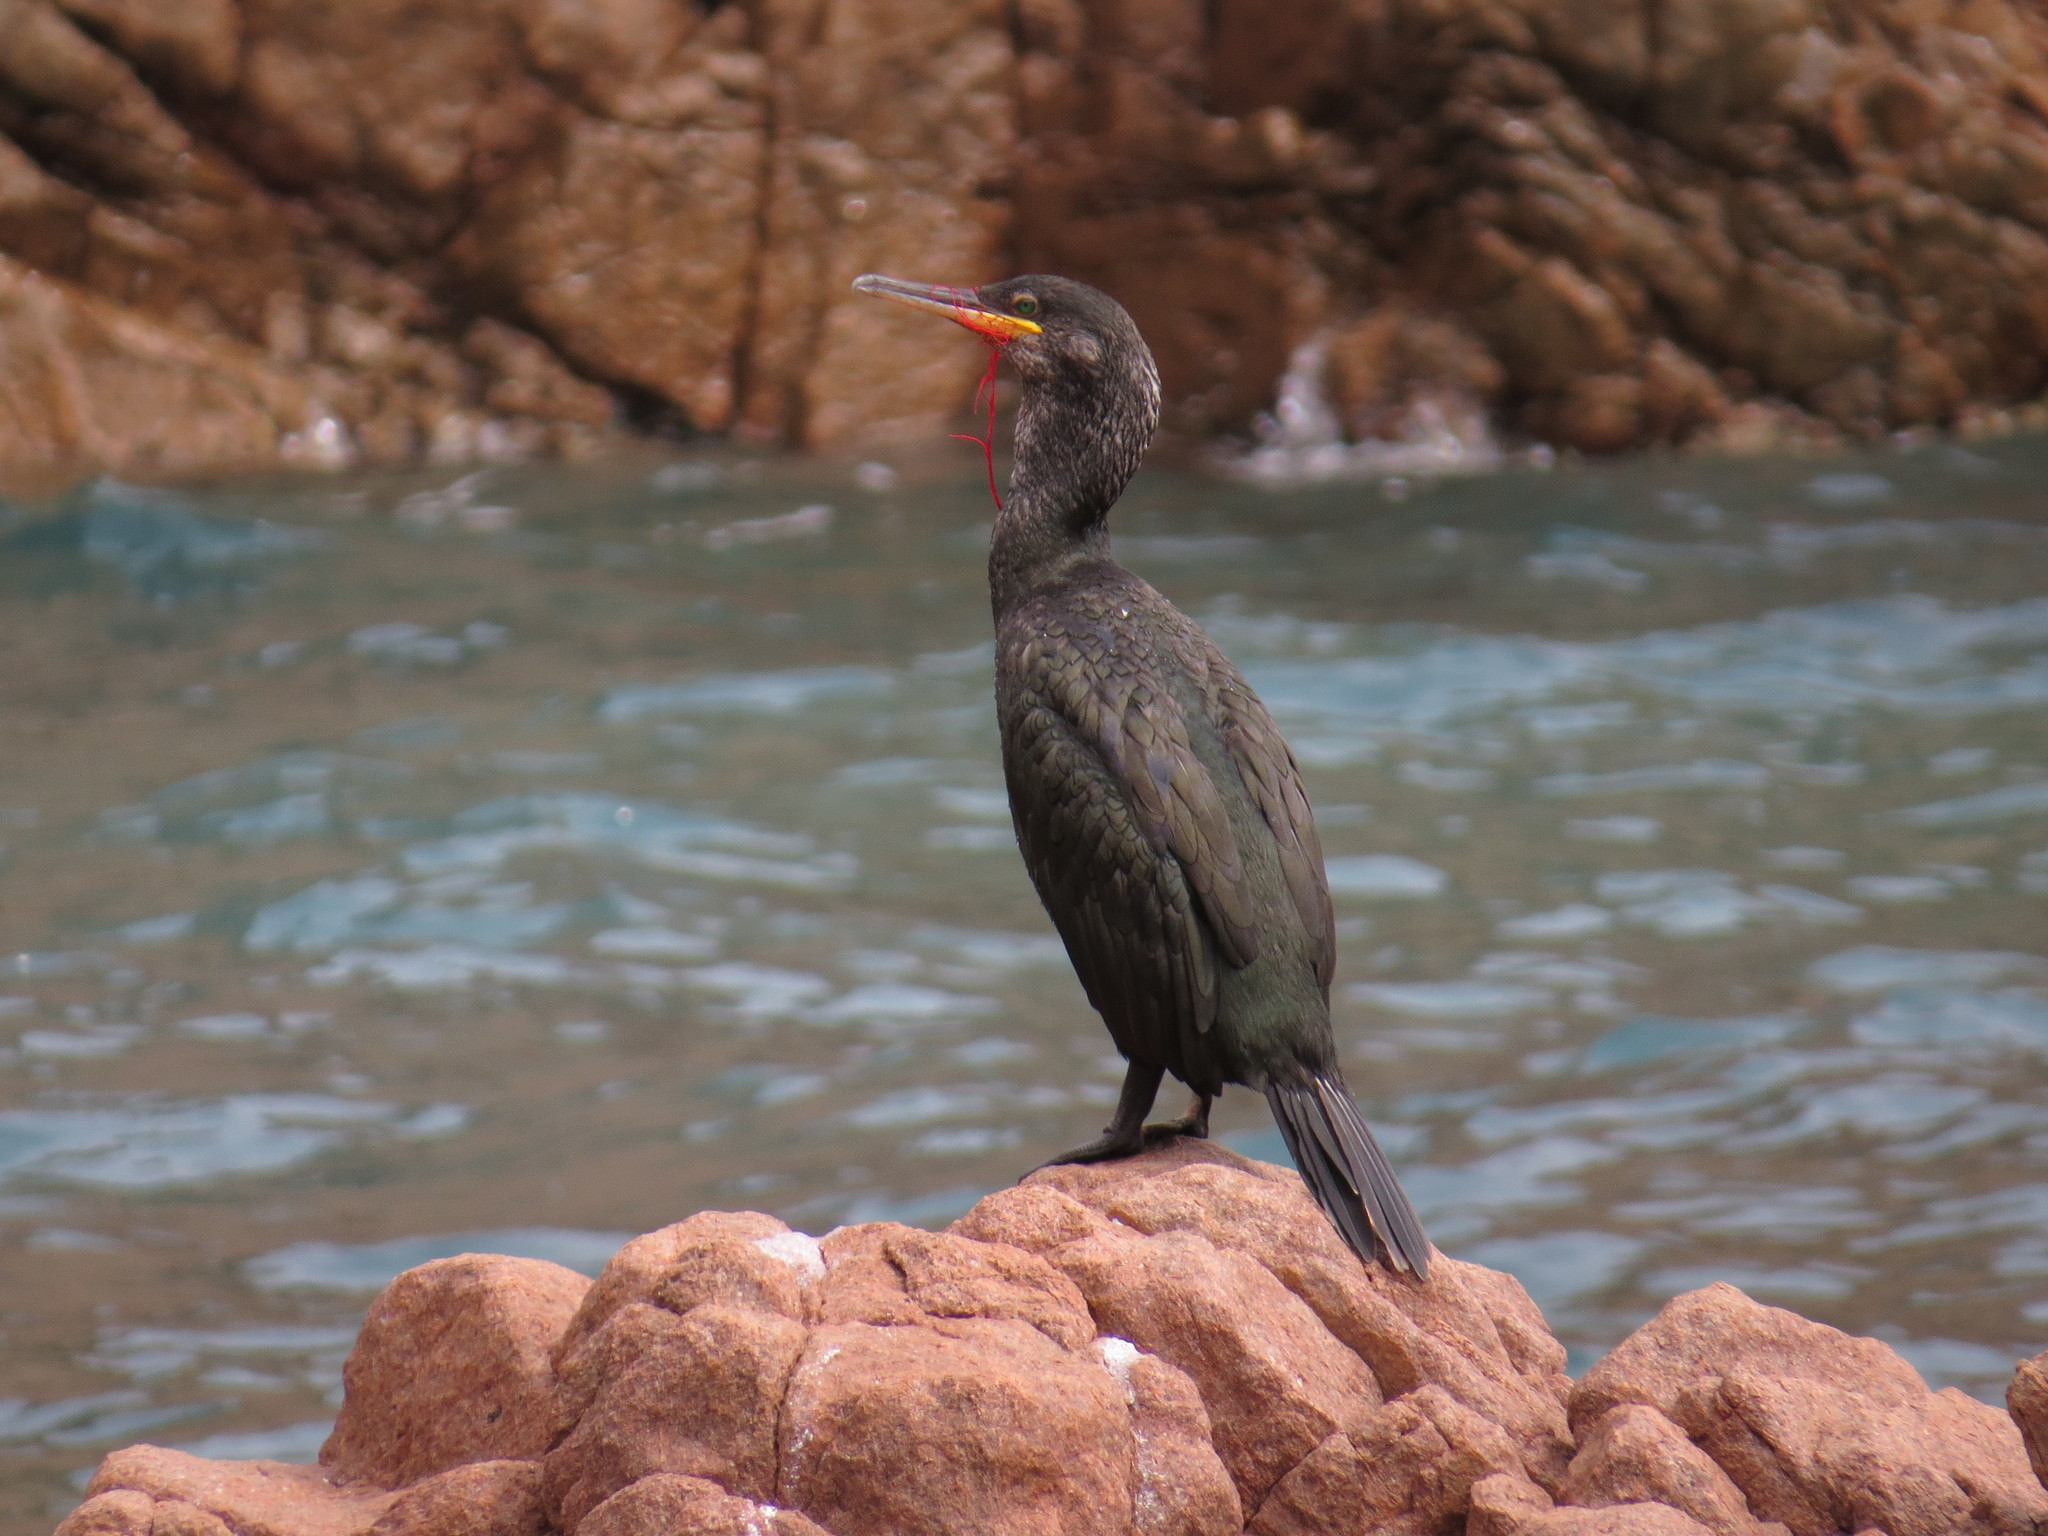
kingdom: Animalia
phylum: Chordata
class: Aves
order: Suliformes
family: Phalacrocoracidae
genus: Phalacrocorax
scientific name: Phalacrocorax aristotelis
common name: European shag
